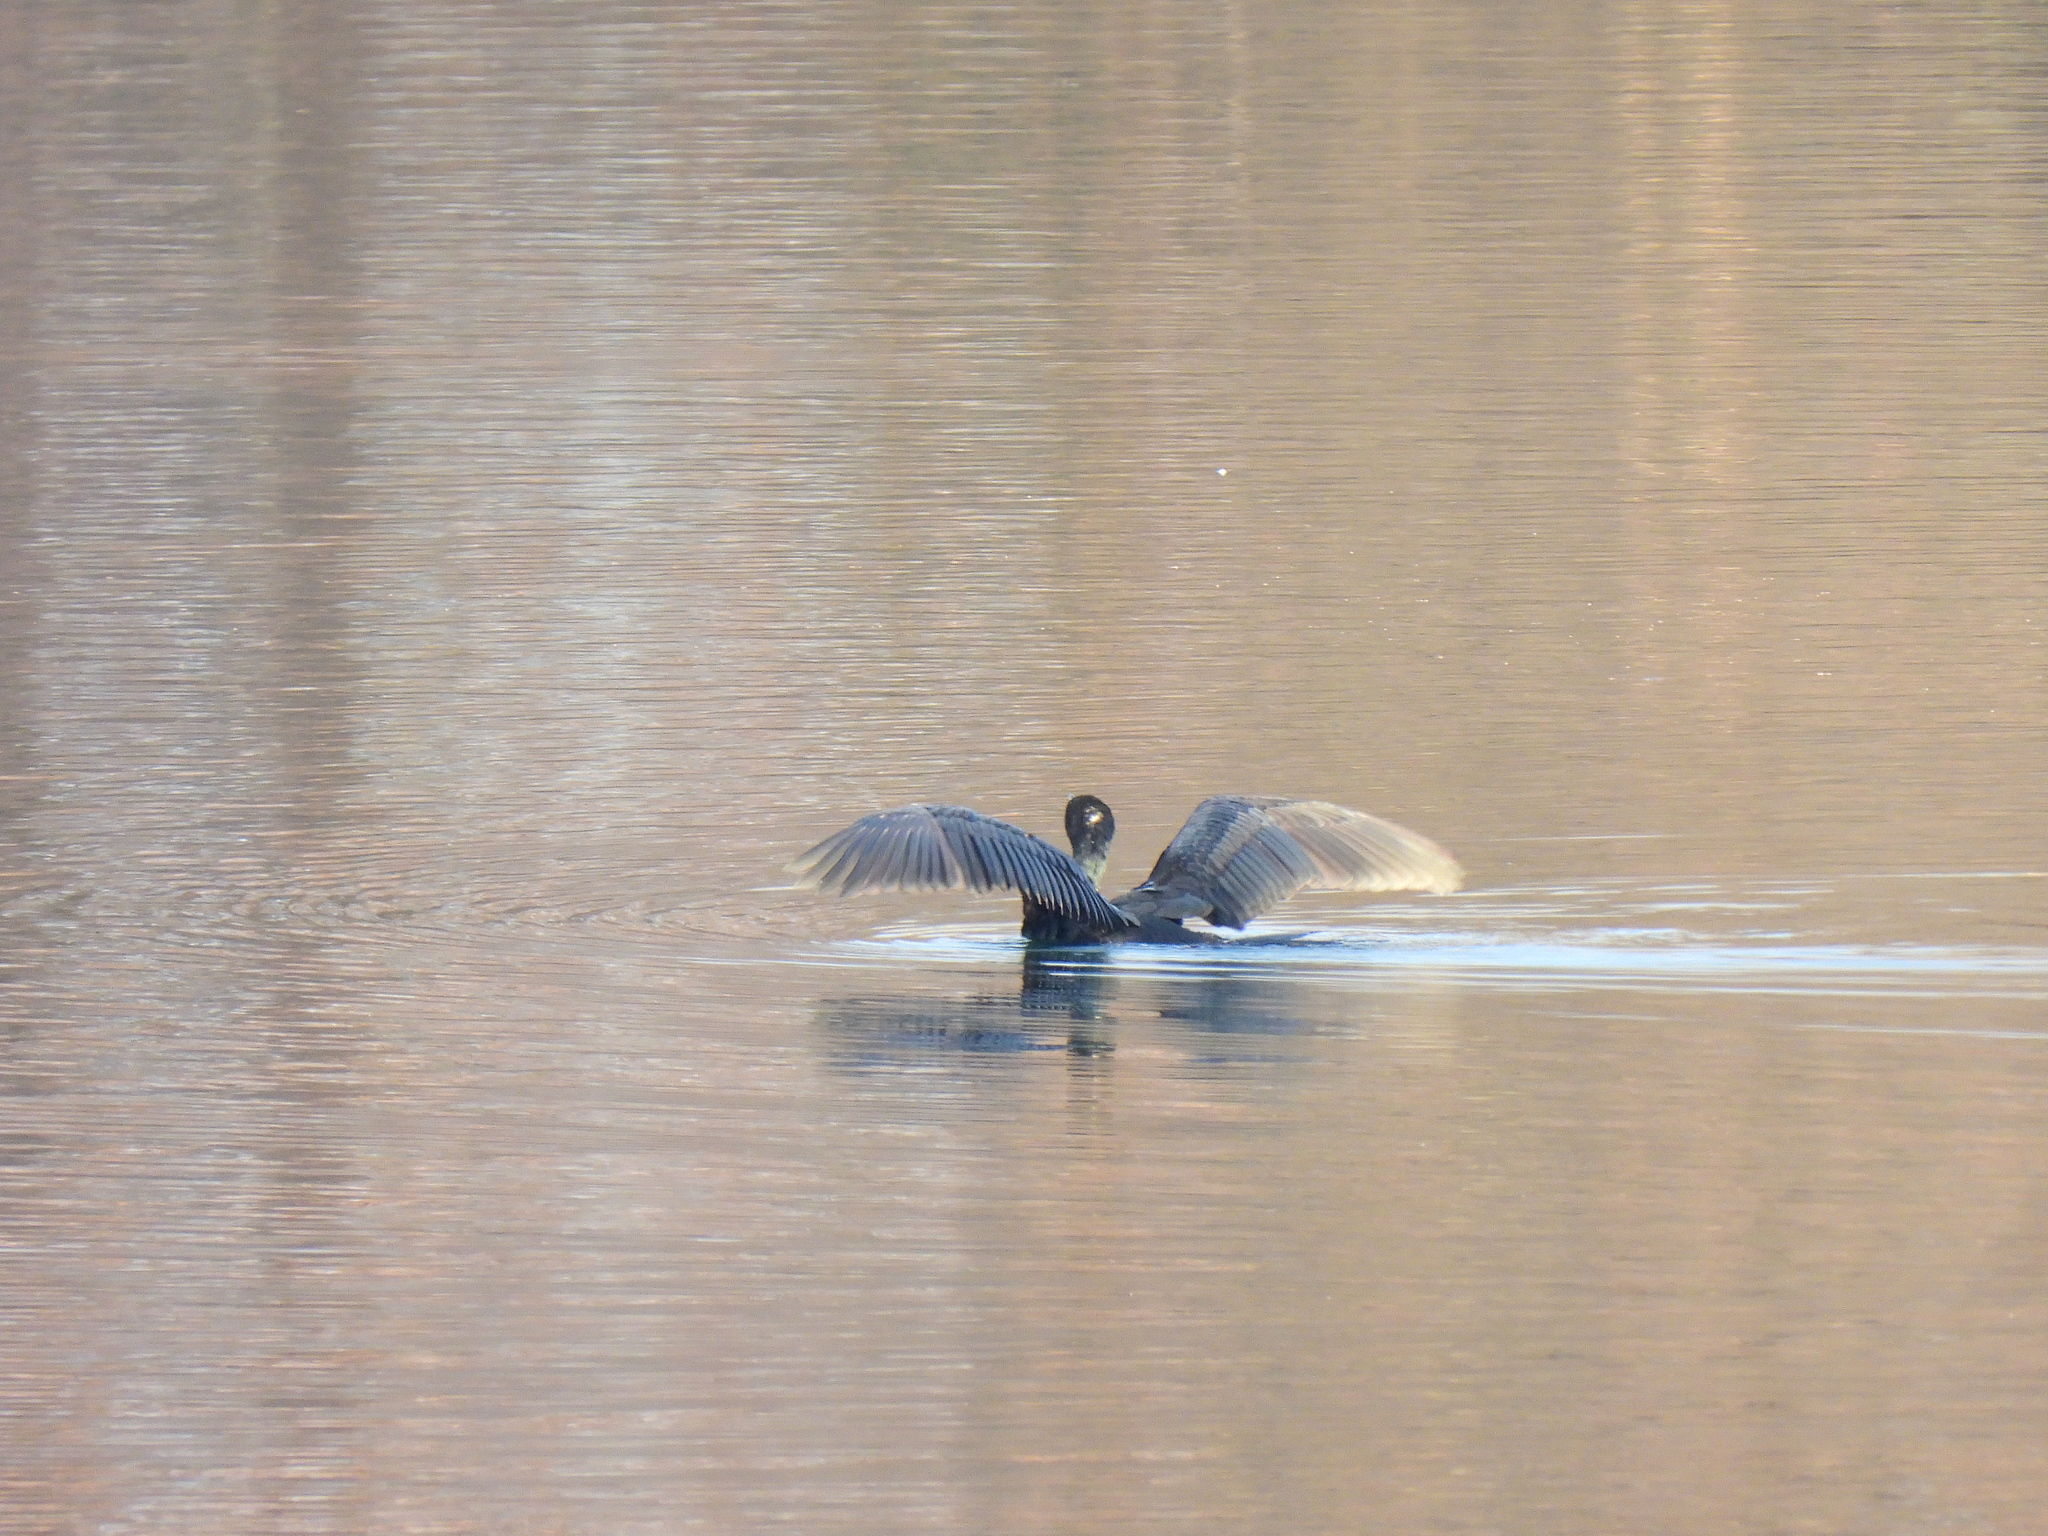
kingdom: Animalia
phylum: Chordata
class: Aves
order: Suliformes
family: Phalacrocoracidae
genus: Phalacrocorax
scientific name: Phalacrocorax carbo
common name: Great cormorant
